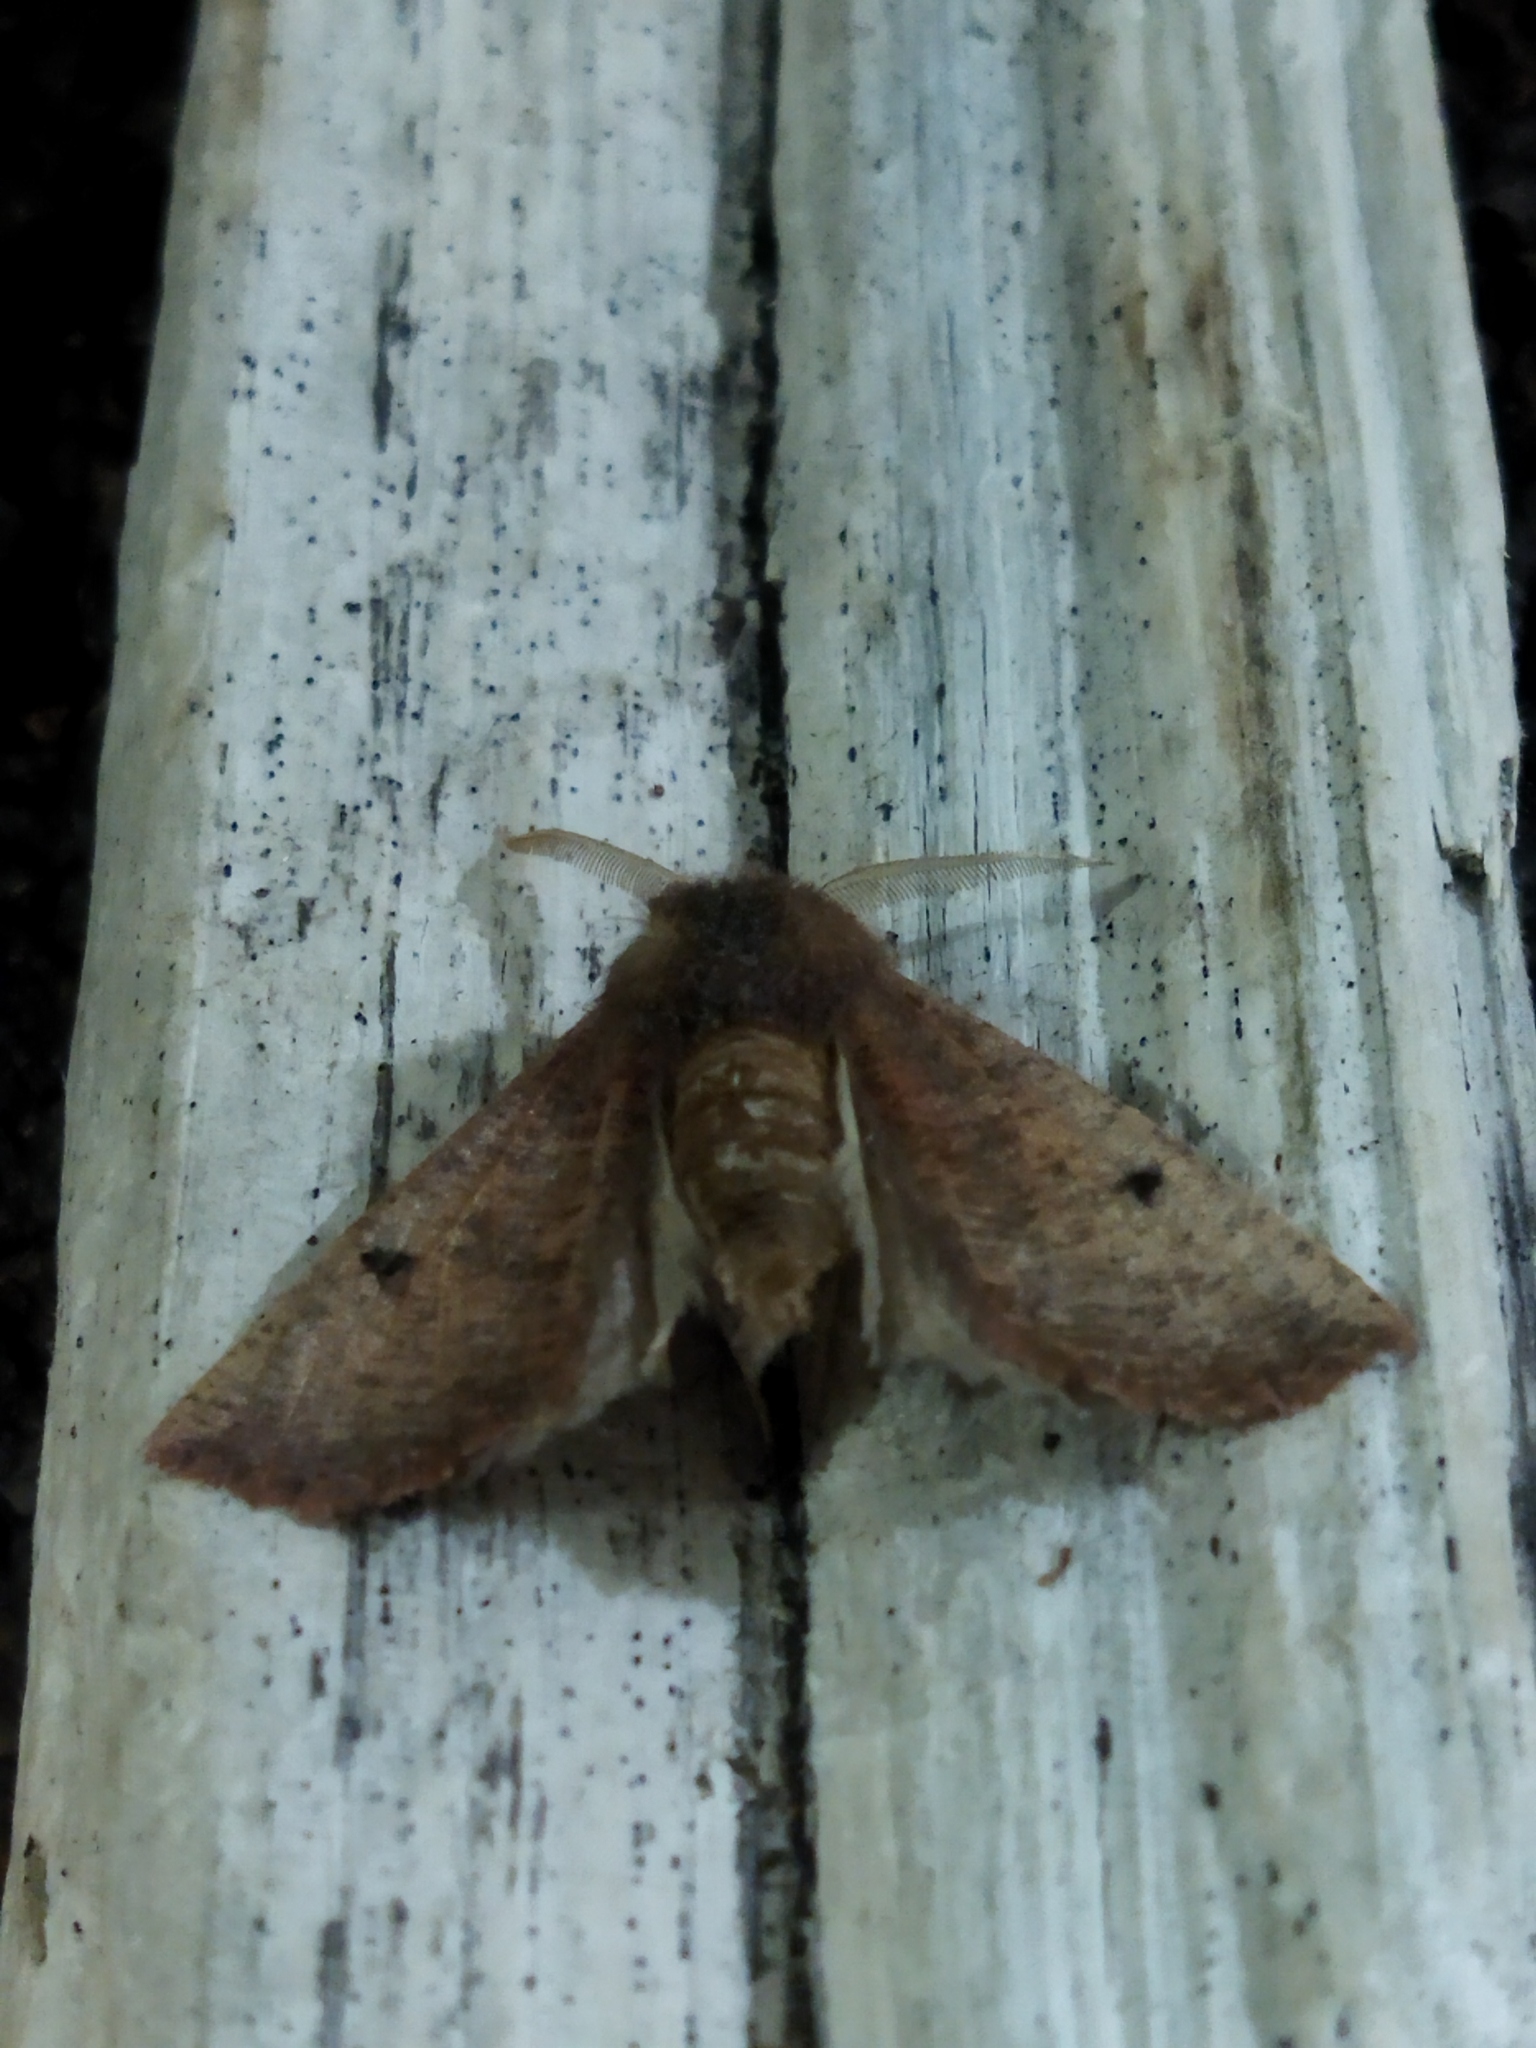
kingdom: Animalia
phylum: Arthropoda
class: Insecta
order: Lepidoptera
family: Geometridae
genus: Dasycorsa
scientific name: Dasycorsa modesta
